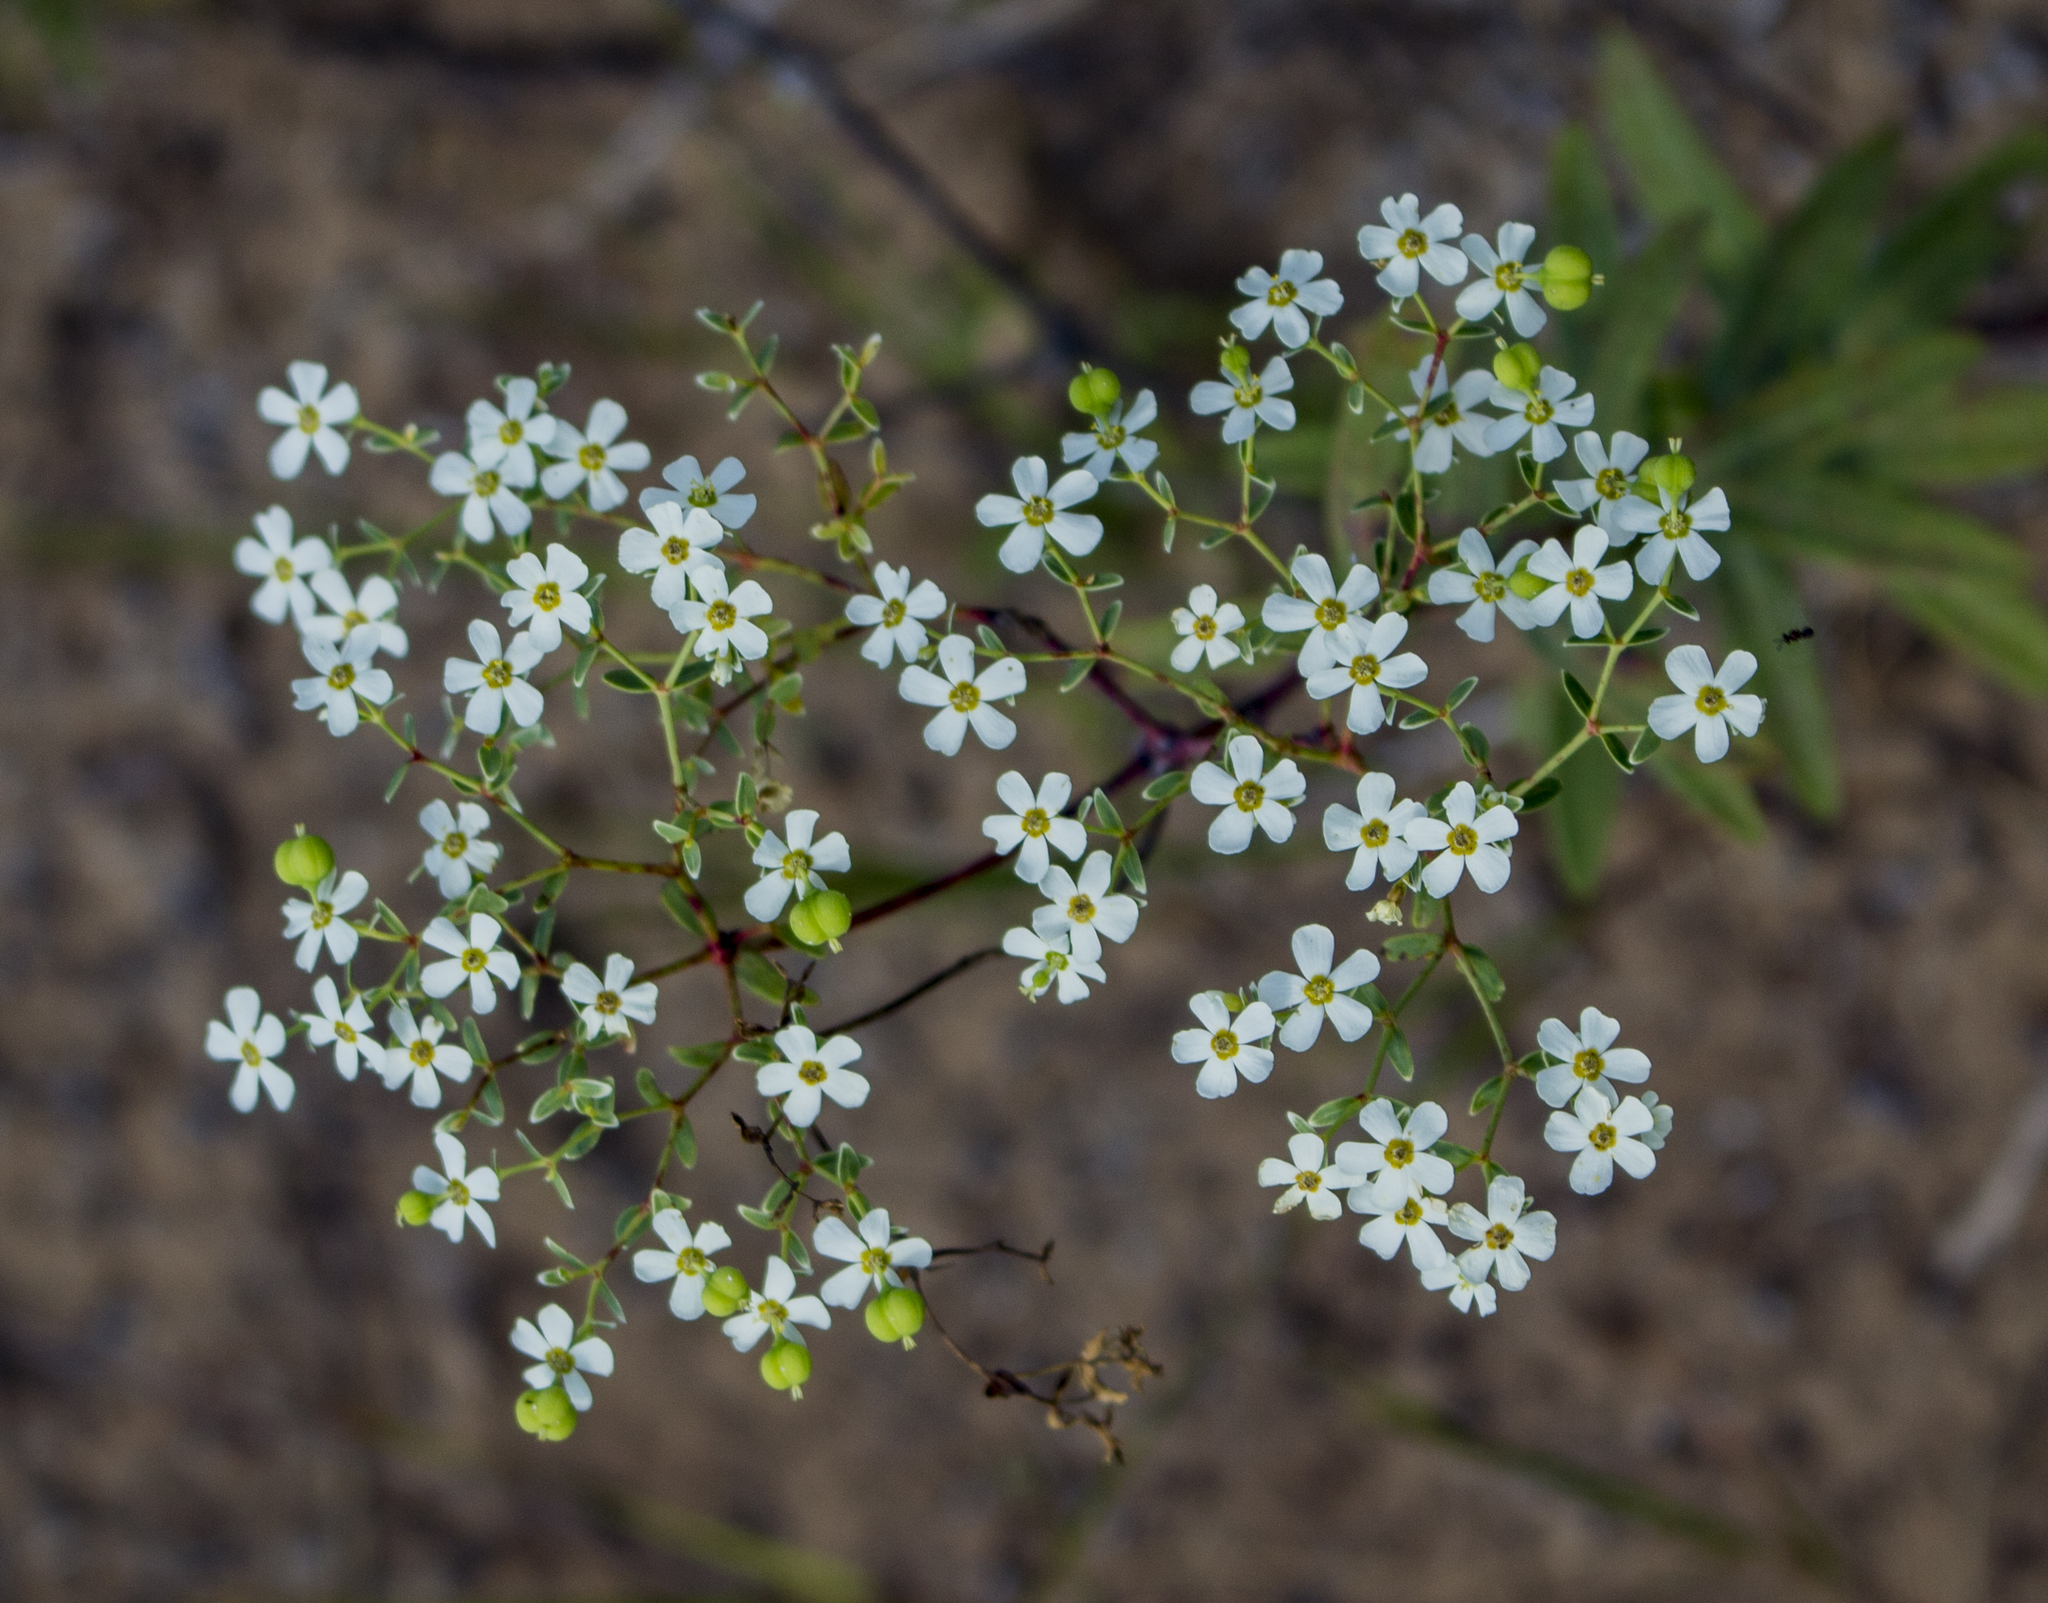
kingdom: Plantae
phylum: Tracheophyta
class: Magnoliopsida
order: Malpighiales
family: Euphorbiaceae
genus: Euphorbia
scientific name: Euphorbia corollata
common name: Flowering spurge
